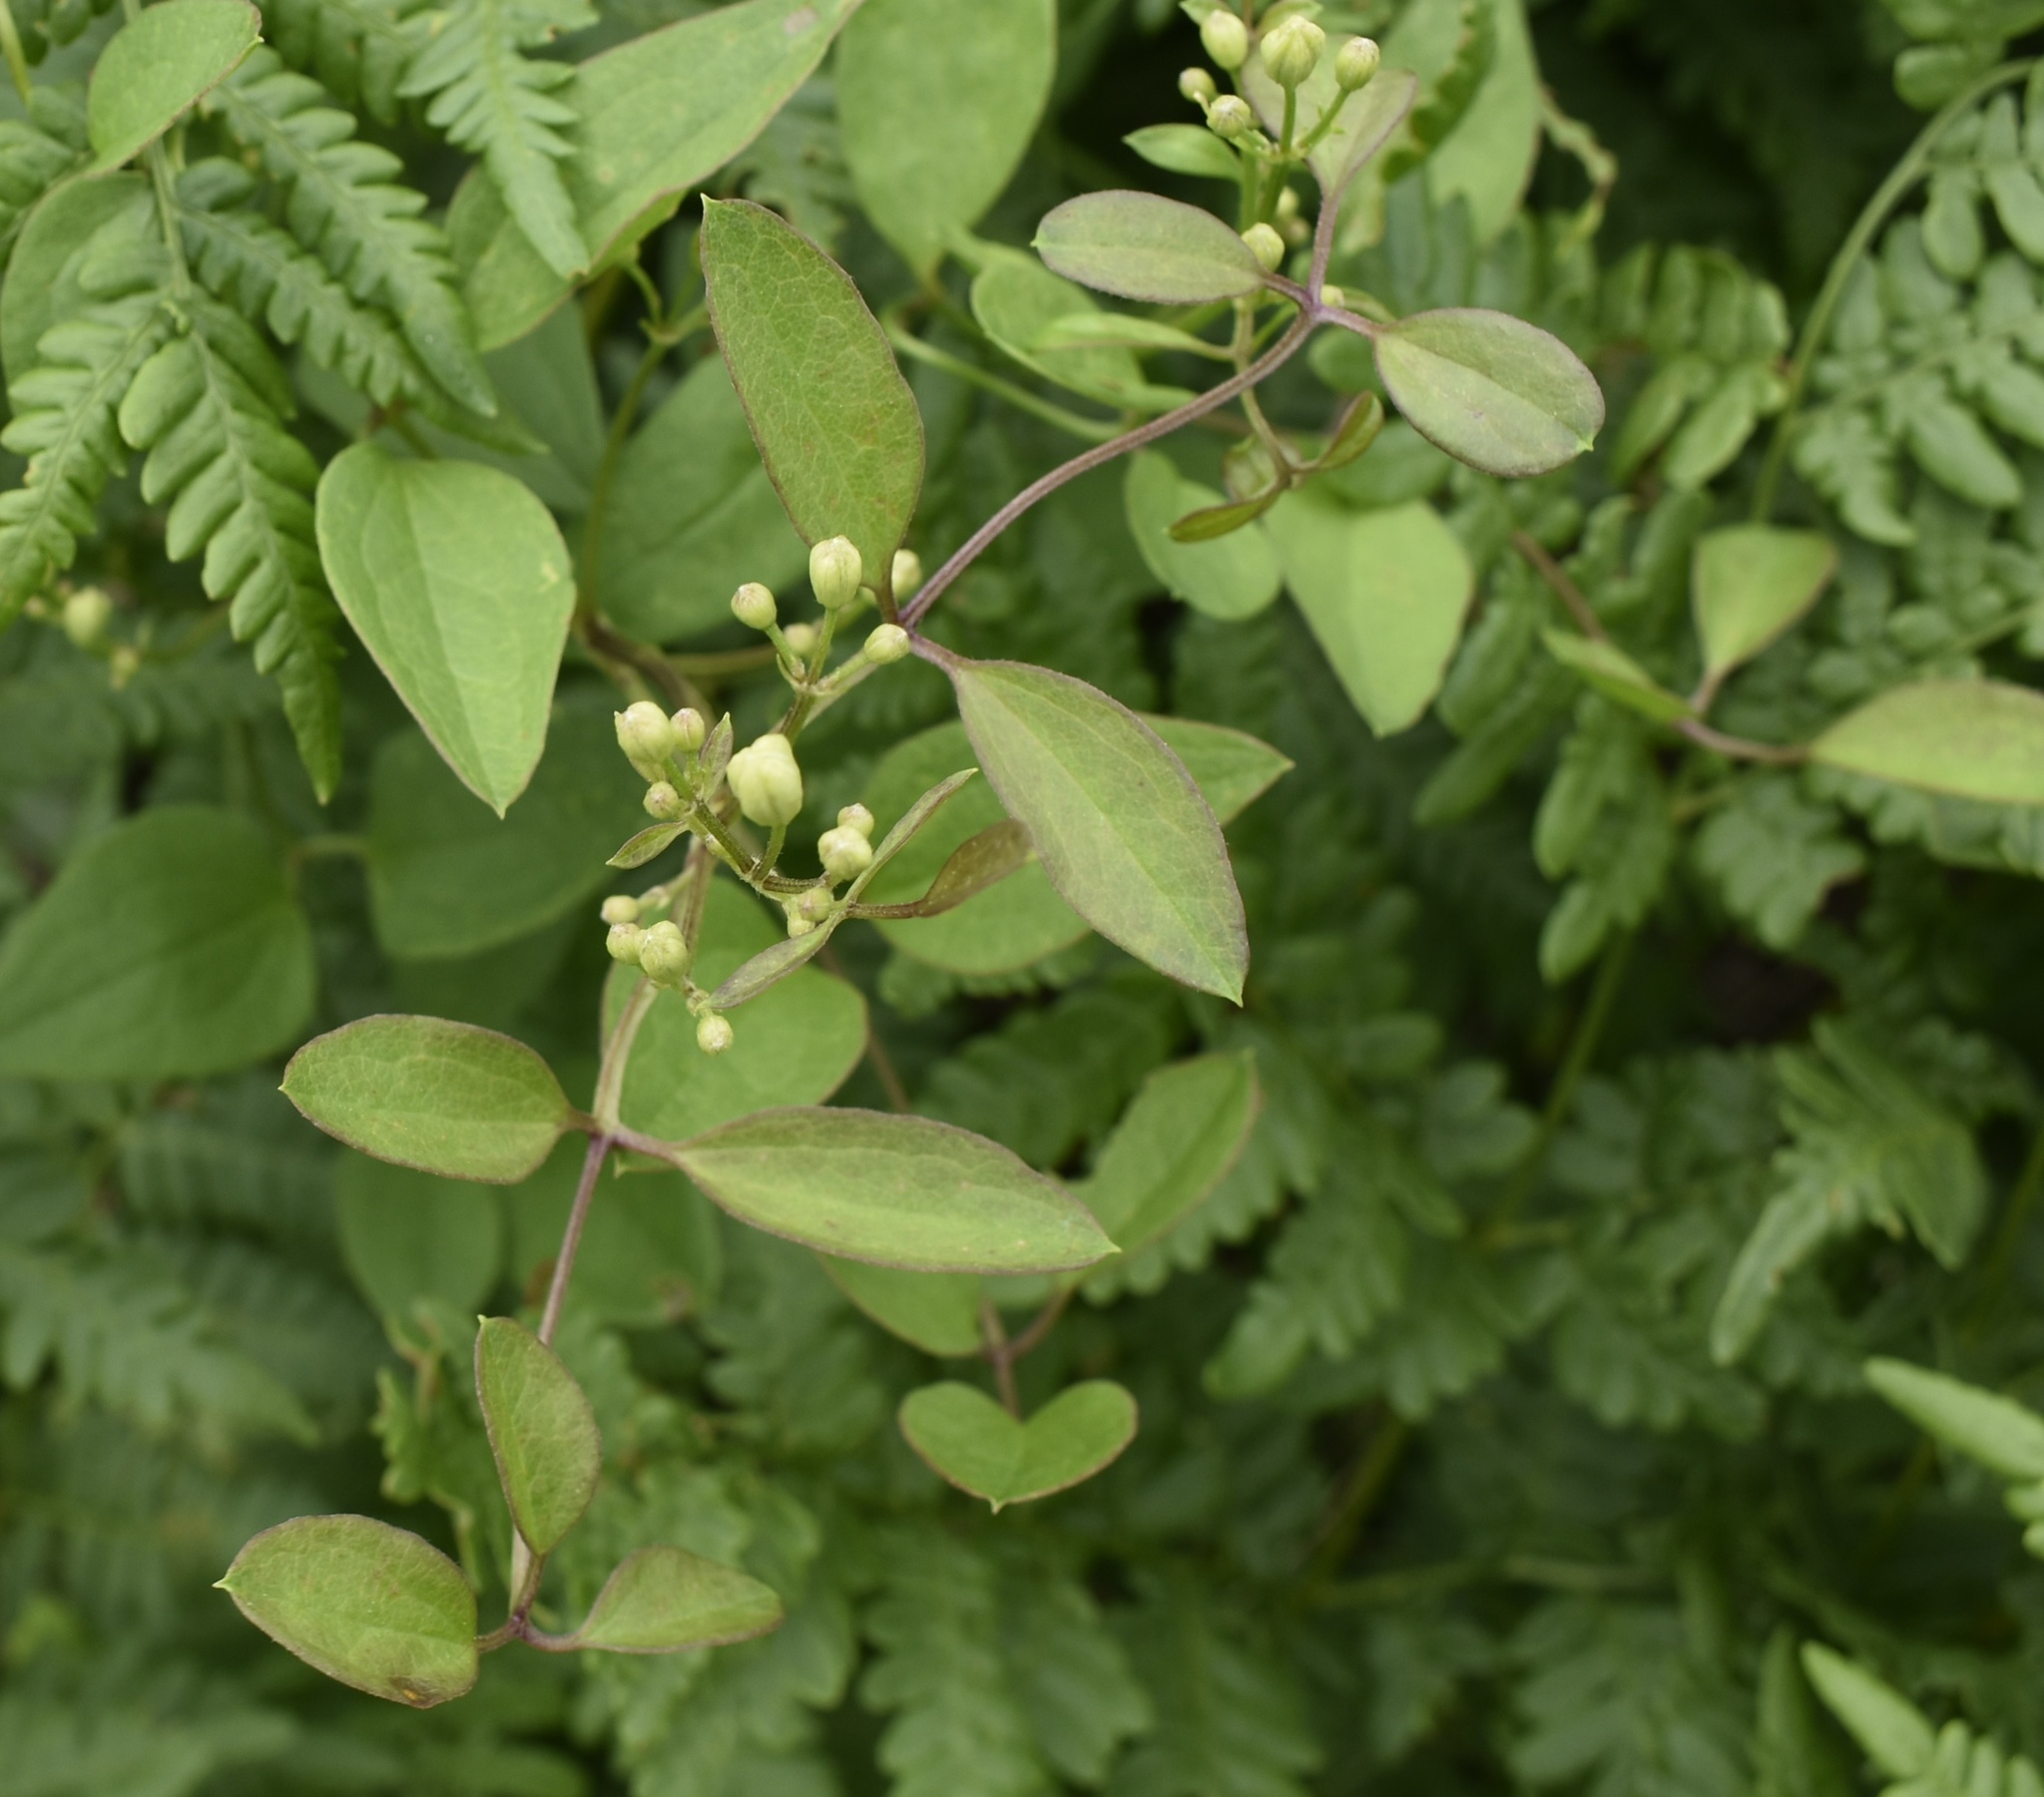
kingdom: Plantae
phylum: Tracheophyta
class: Magnoliopsida
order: Ranunculales
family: Ranunculaceae
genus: Clematis
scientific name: Clematis terniflora
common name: Sweet autumn clematis
